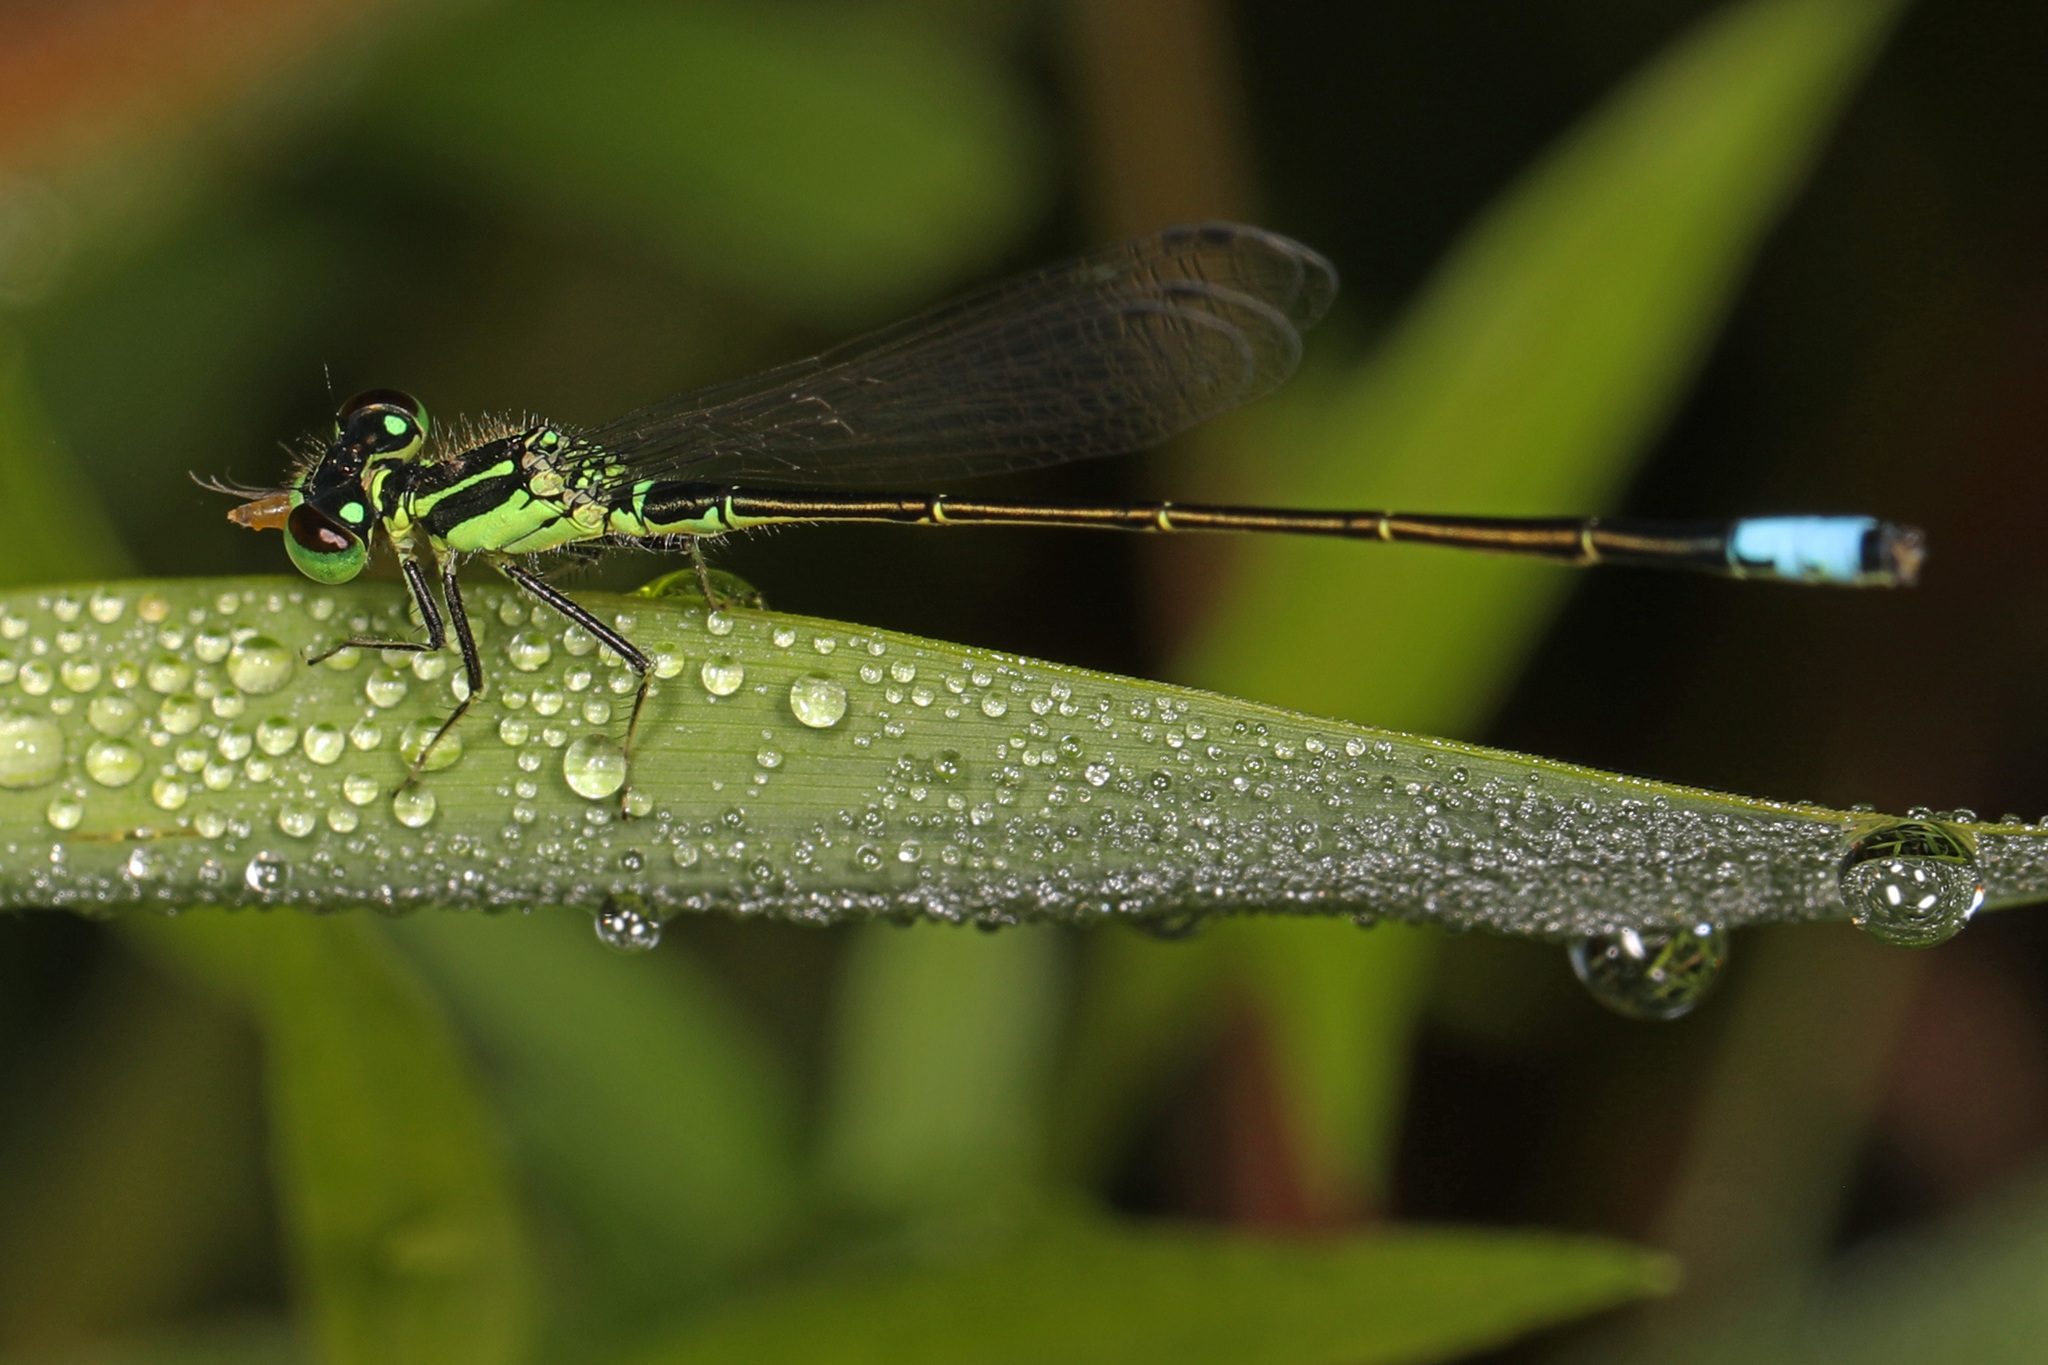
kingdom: Animalia
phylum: Arthropoda
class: Insecta
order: Odonata
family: Coenagrionidae
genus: Ischnura
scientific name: Ischnura verticalis
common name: Eastern forktail
